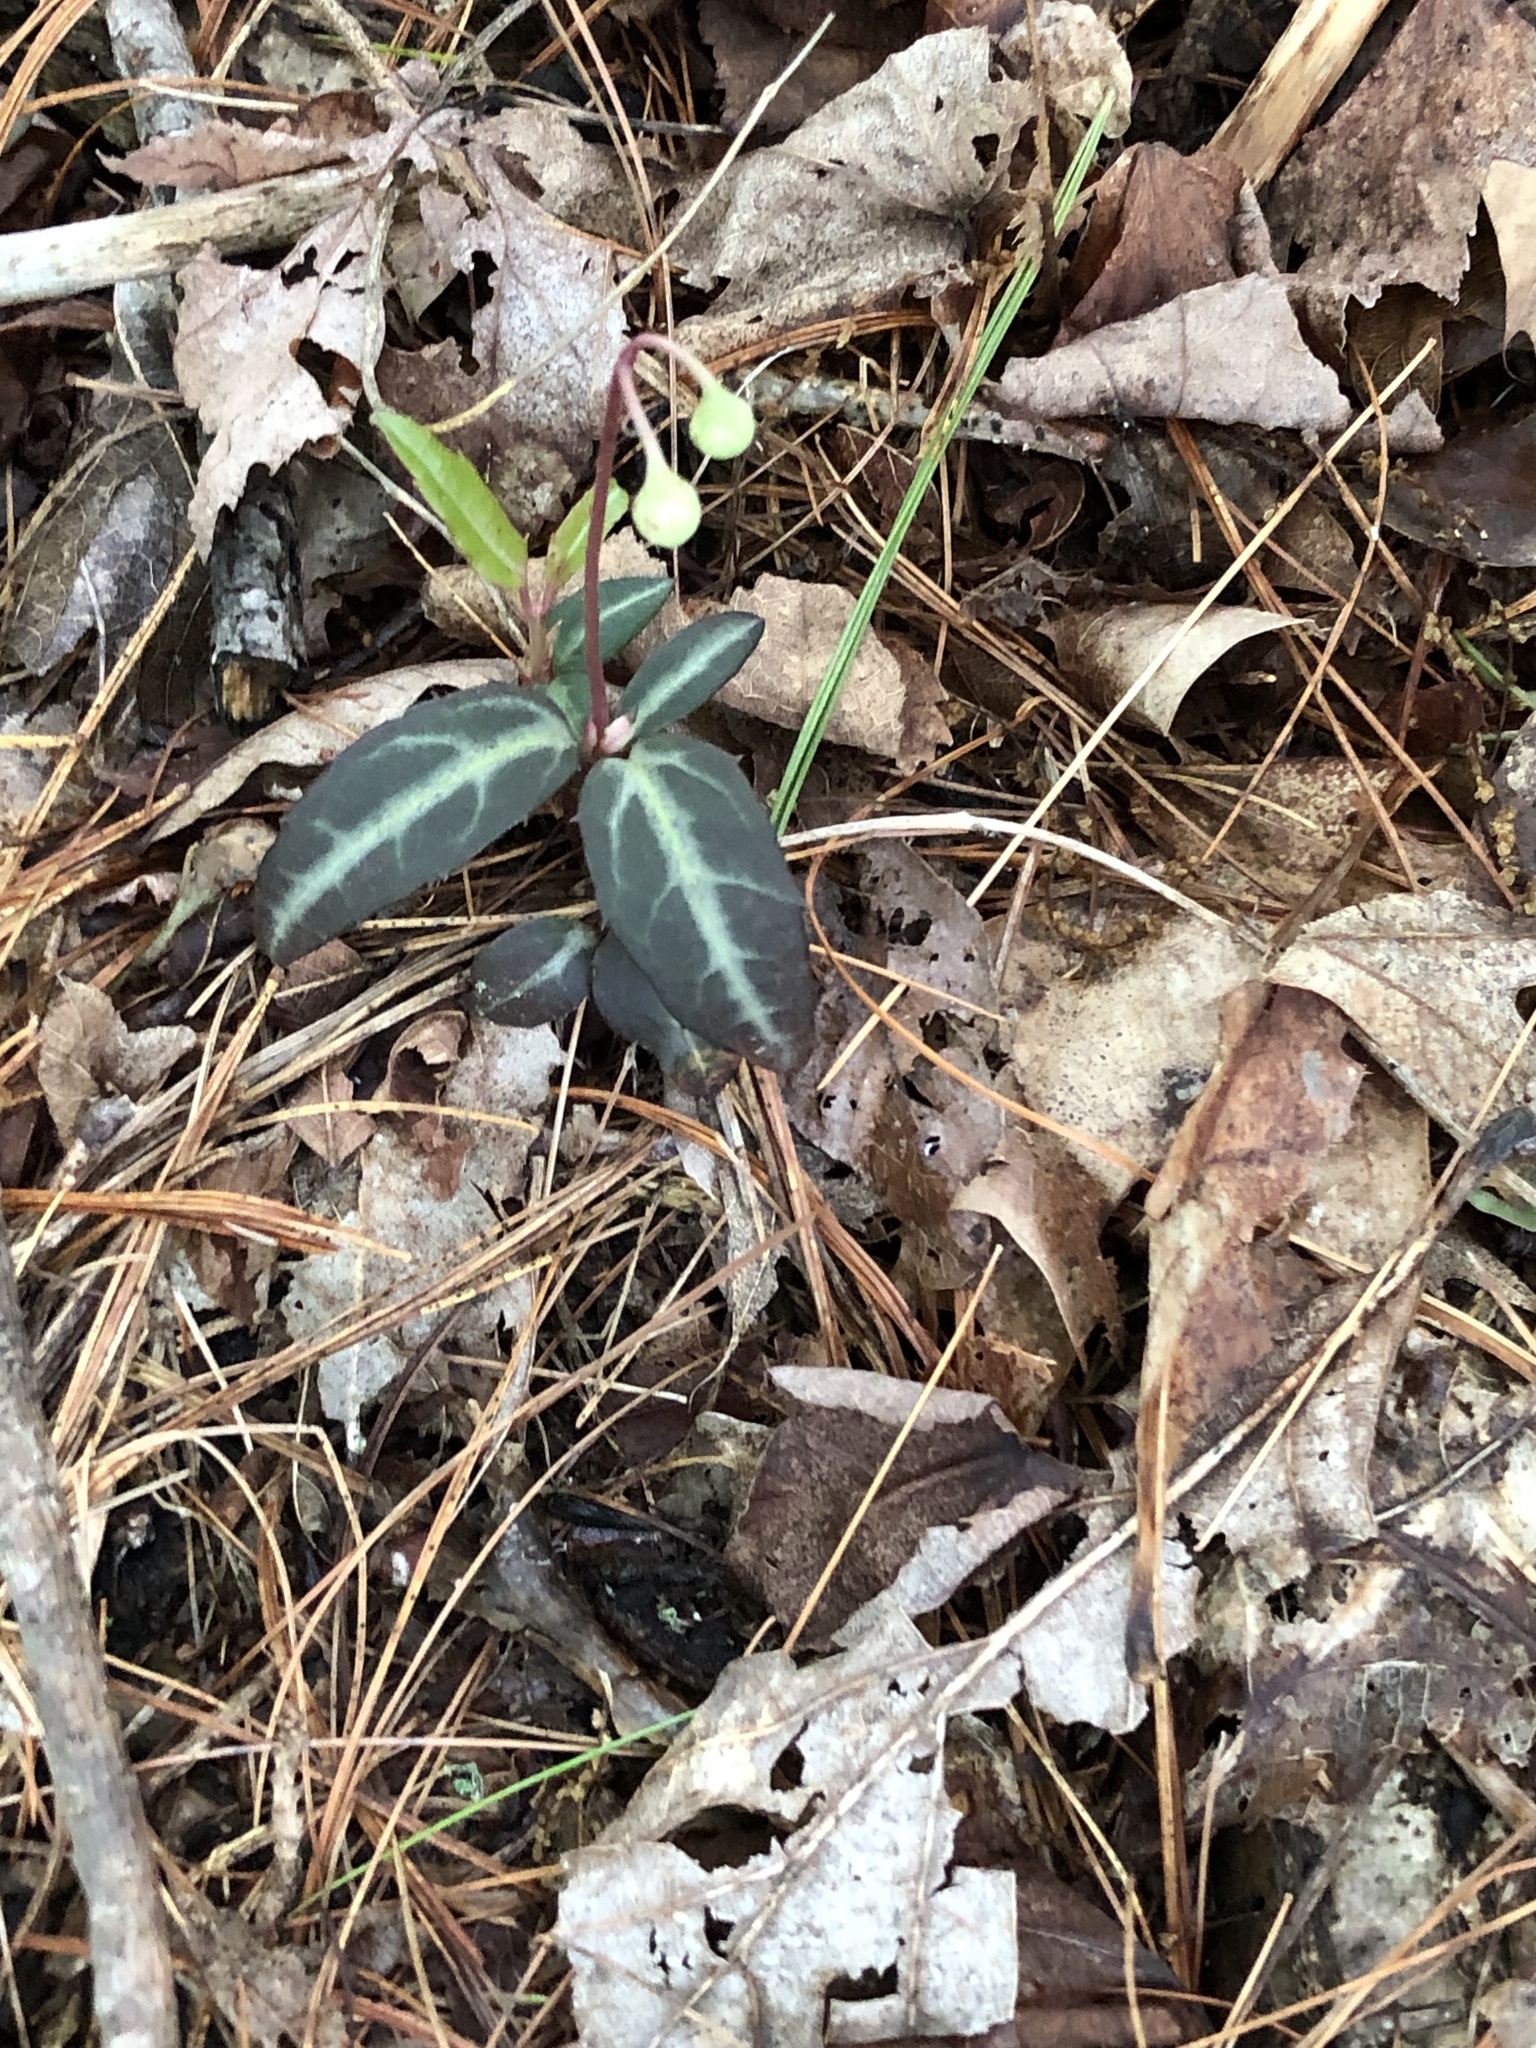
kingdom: Plantae
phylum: Tracheophyta
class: Magnoliopsida
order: Ericales
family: Ericaceae
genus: Chimaphila
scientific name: Chimaphila maculata
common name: Spotted pipsissewa
